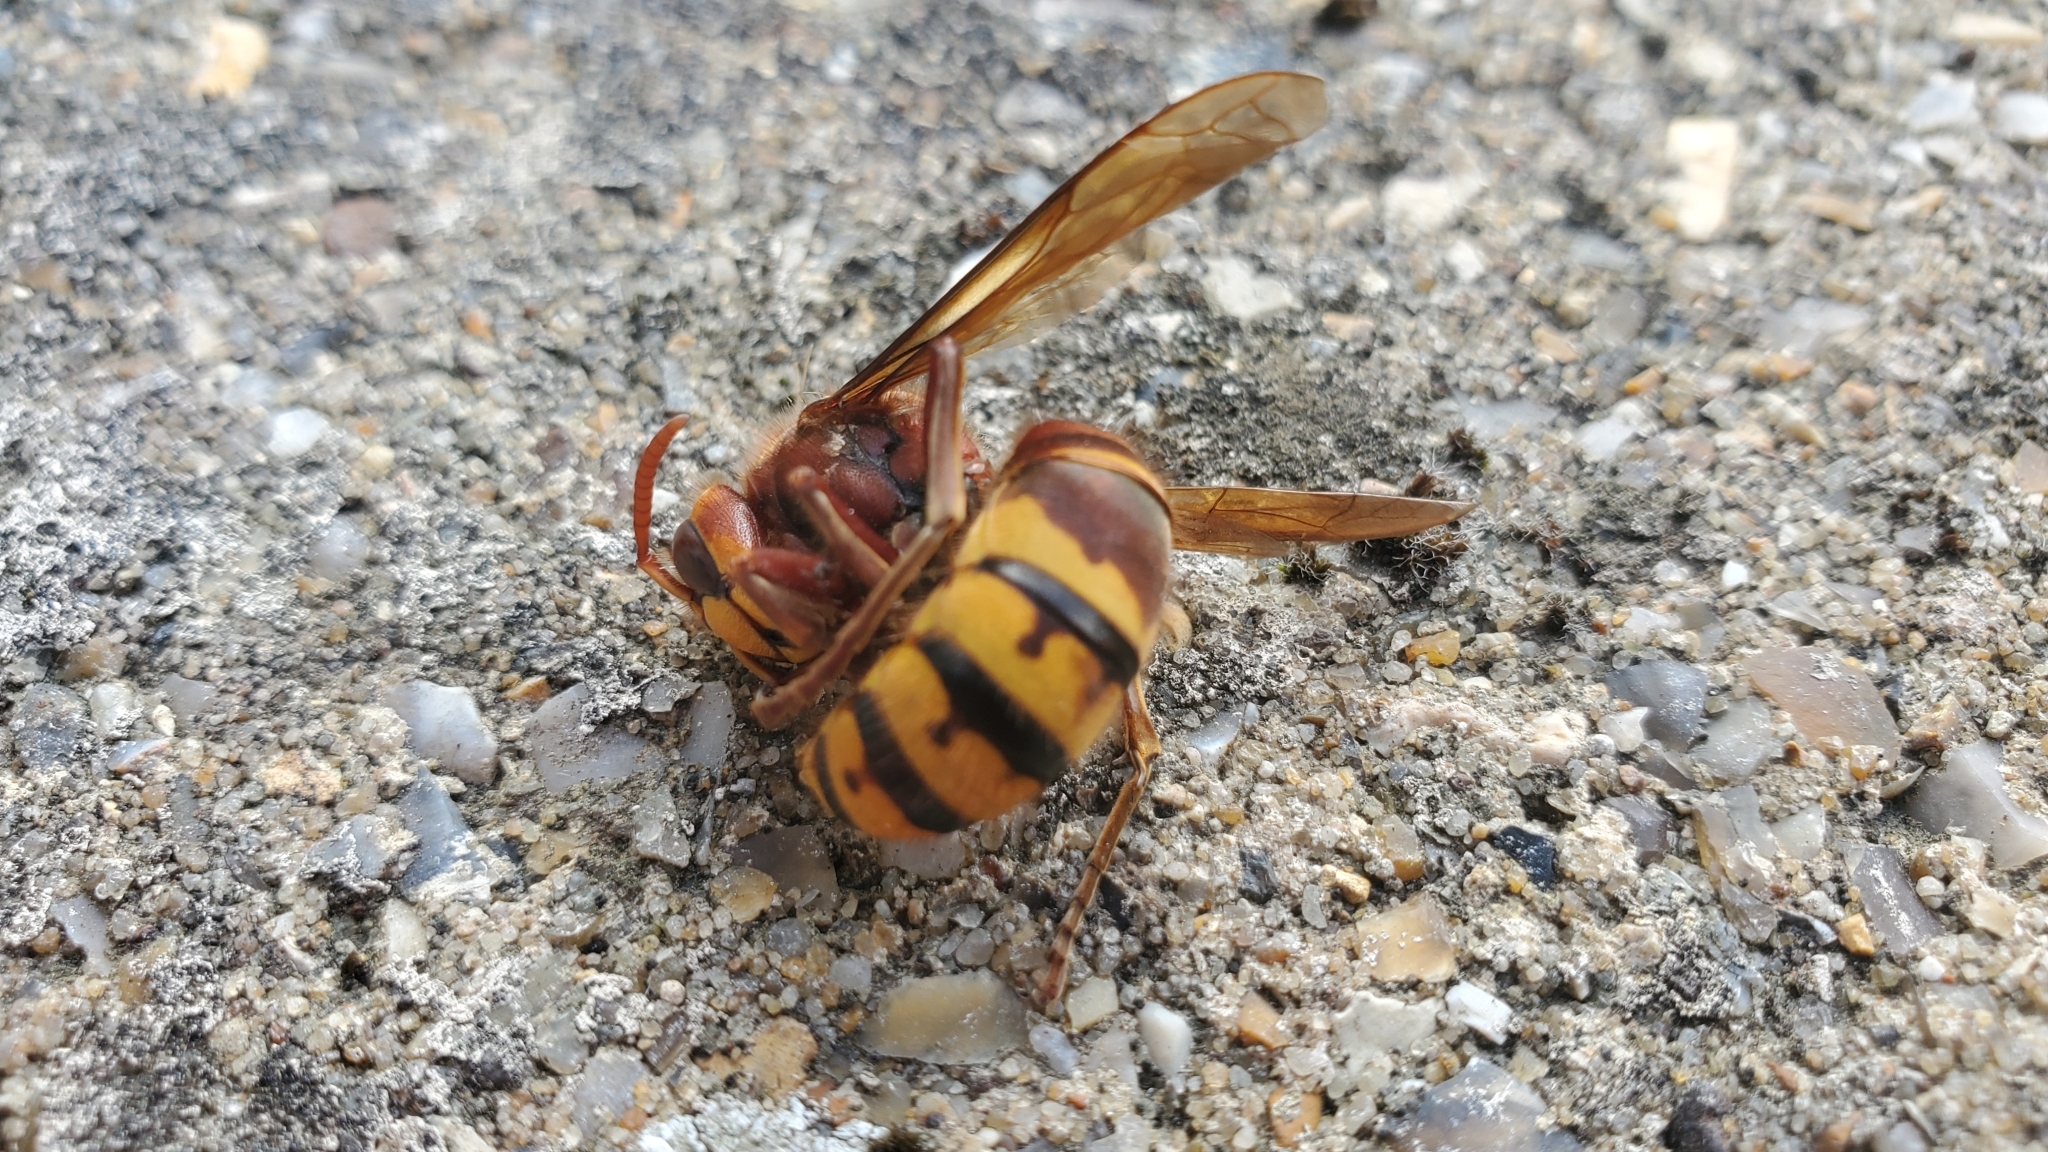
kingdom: Animalia
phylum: Arthropoda
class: Insecta
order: Hymenoptera
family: Vespidae
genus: Vespa
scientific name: Vespa crabro
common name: Hornet
